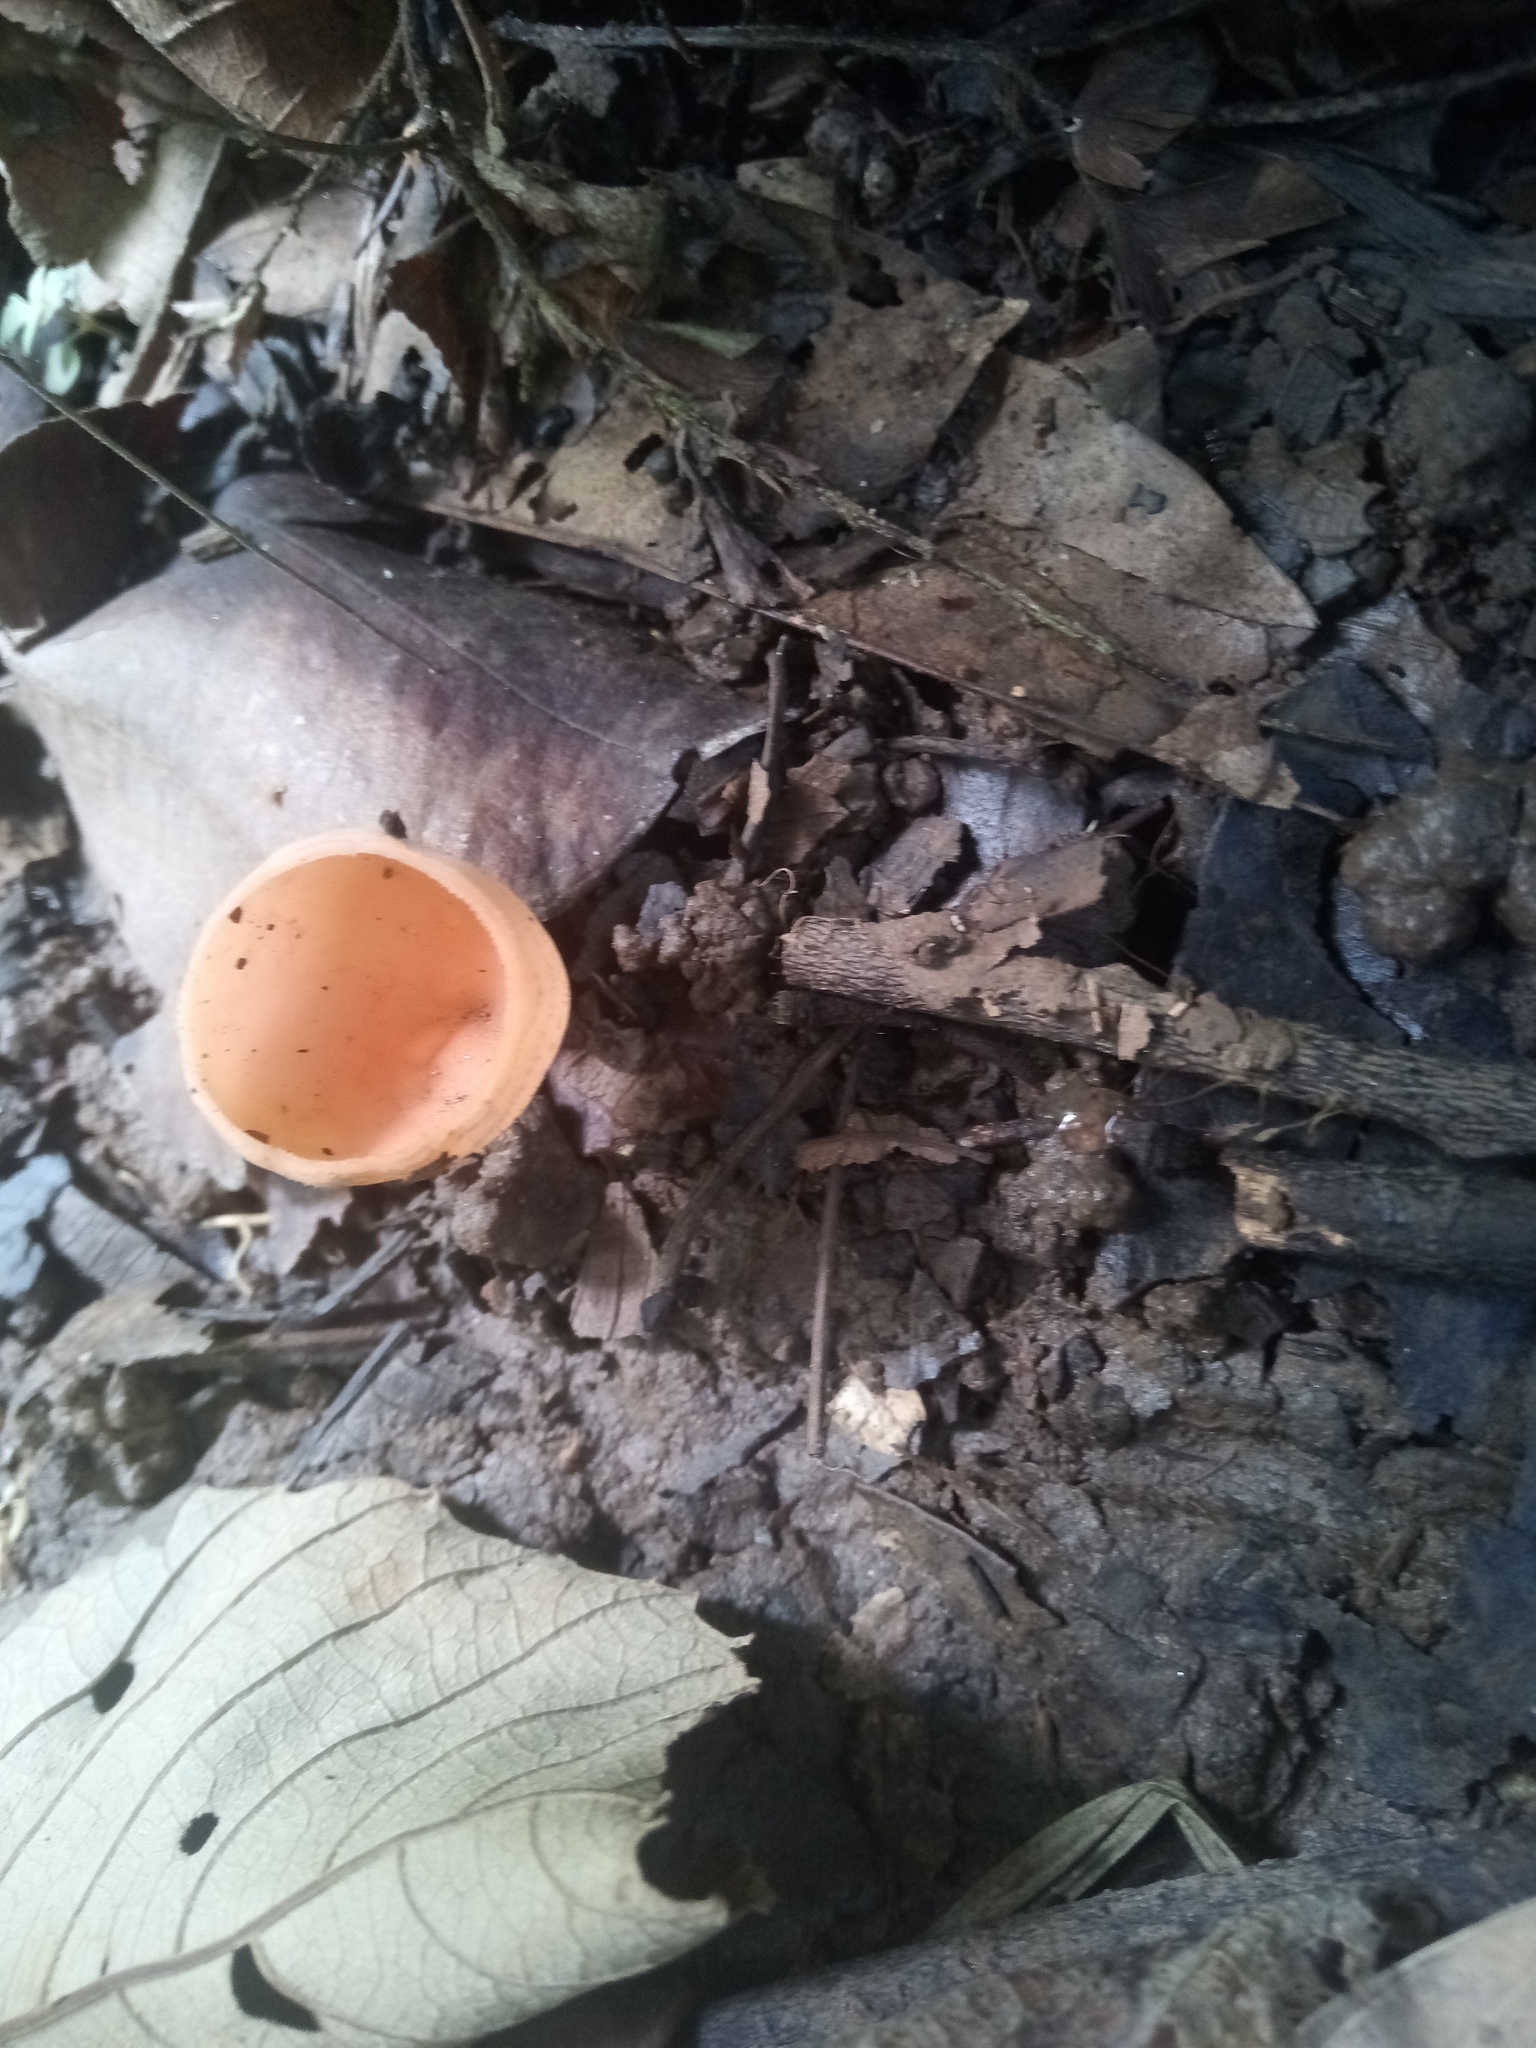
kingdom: Fungi
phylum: Ascomycota
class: Pezizomycetes
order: Pezizales
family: Sarcoscyphaceae
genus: Cookeina
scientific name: Cookeina speciosa
